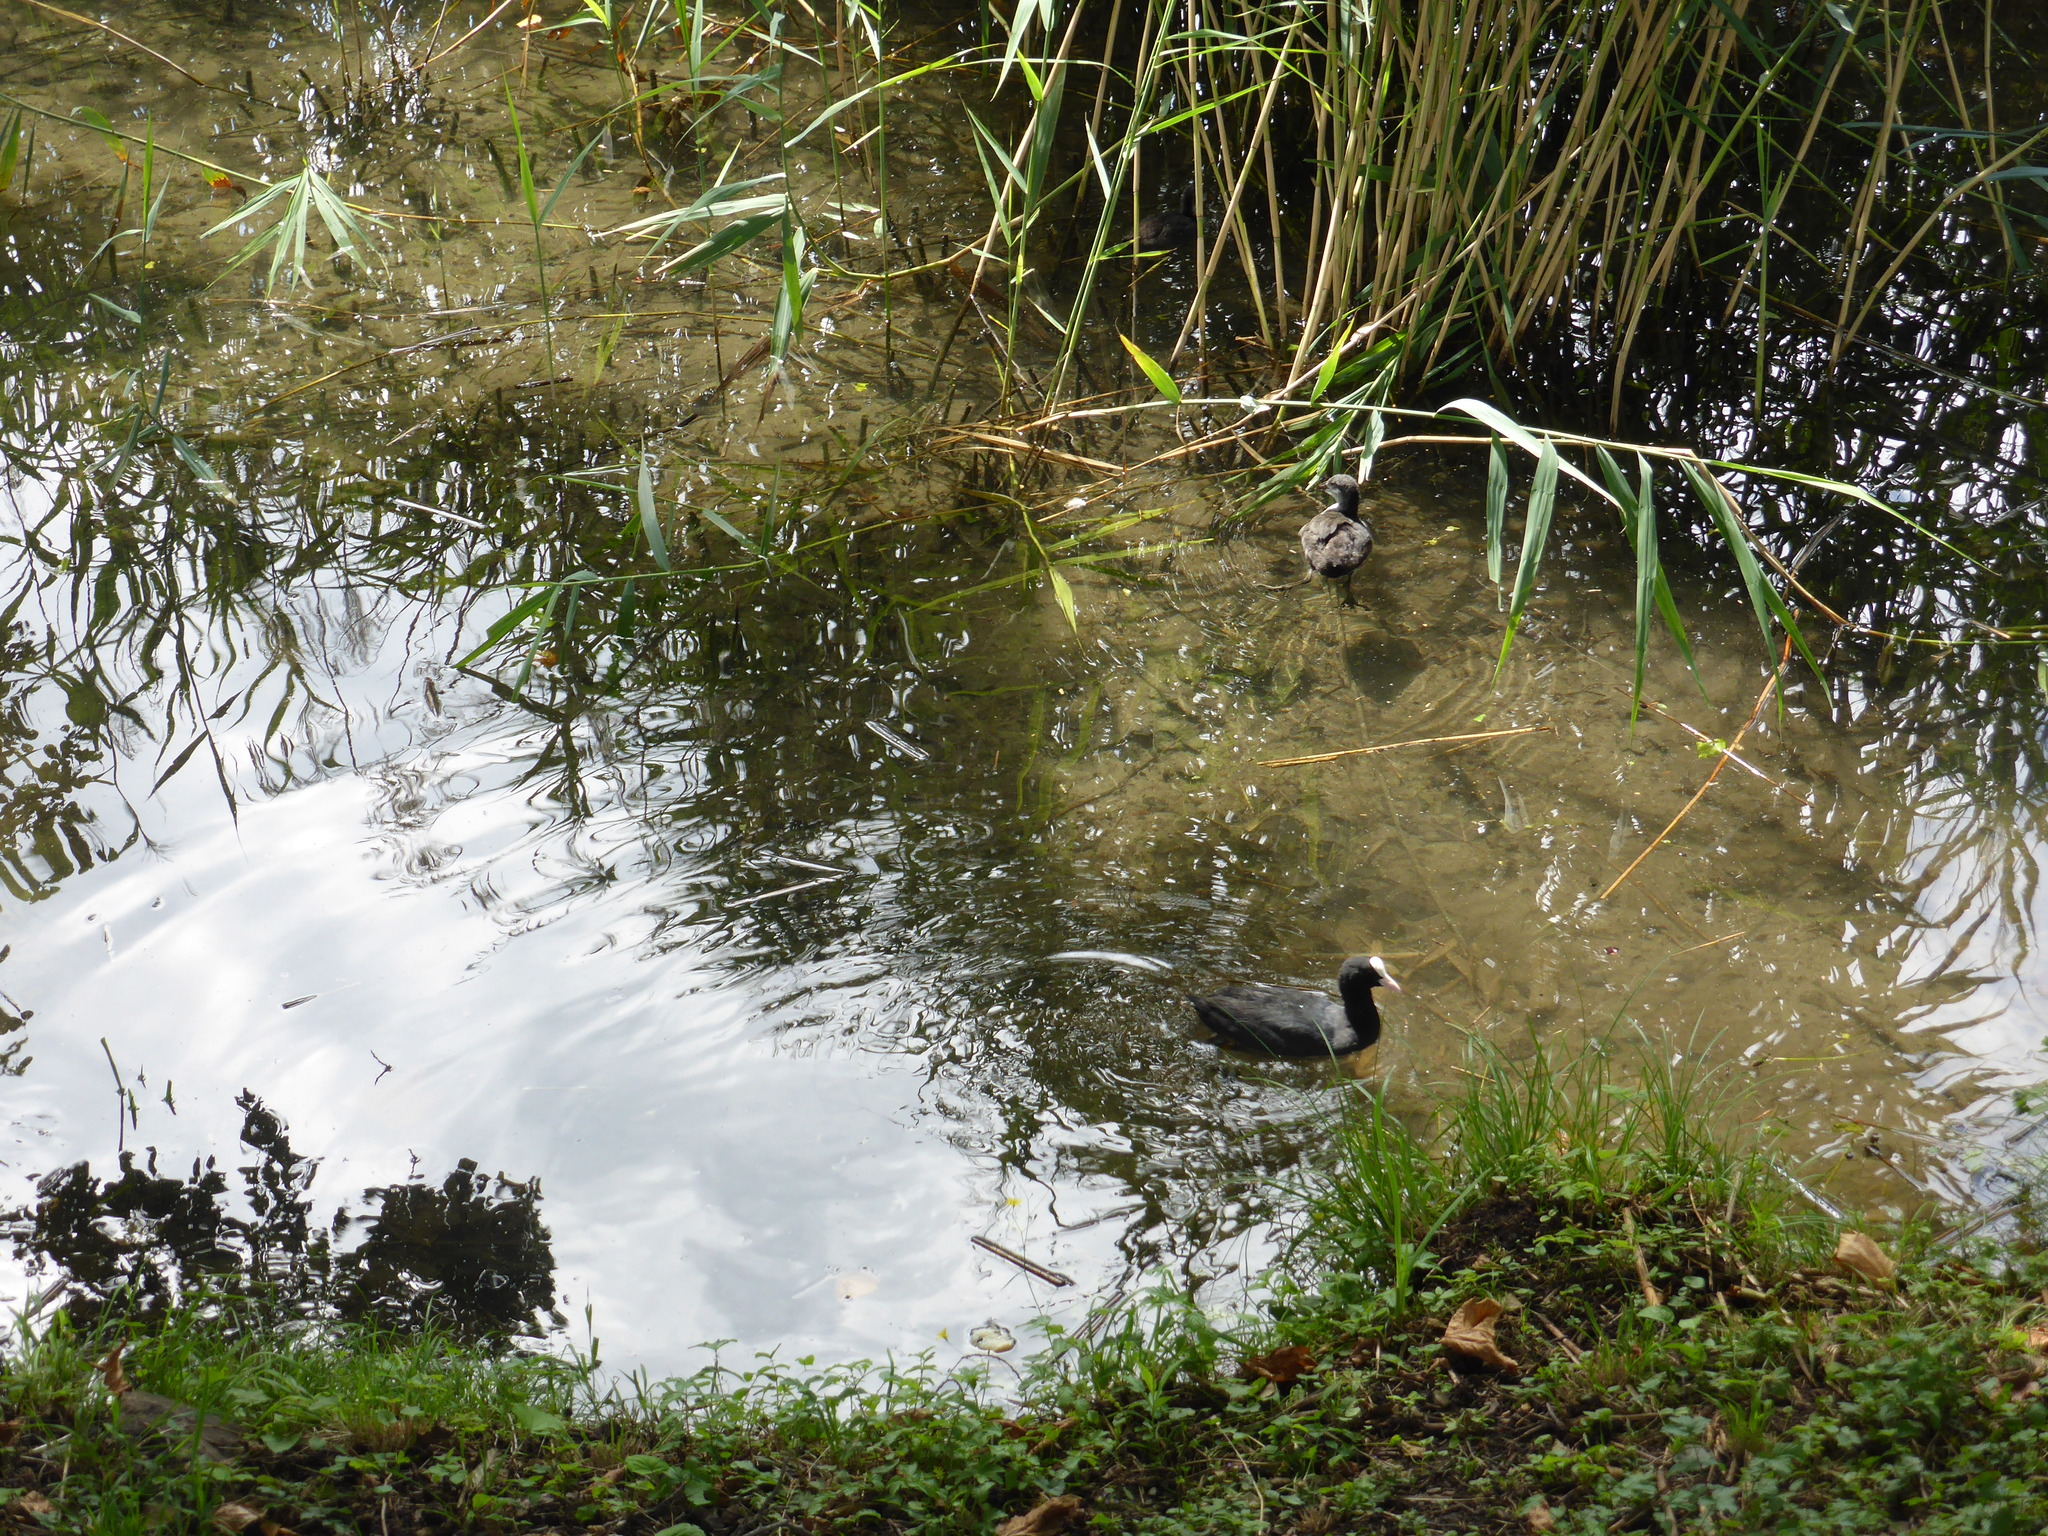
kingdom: Animalia
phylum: Chordata
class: Aves
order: Gruiformes
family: Rallidae
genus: Fulica
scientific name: Fulica atra
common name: Eurasian coot
